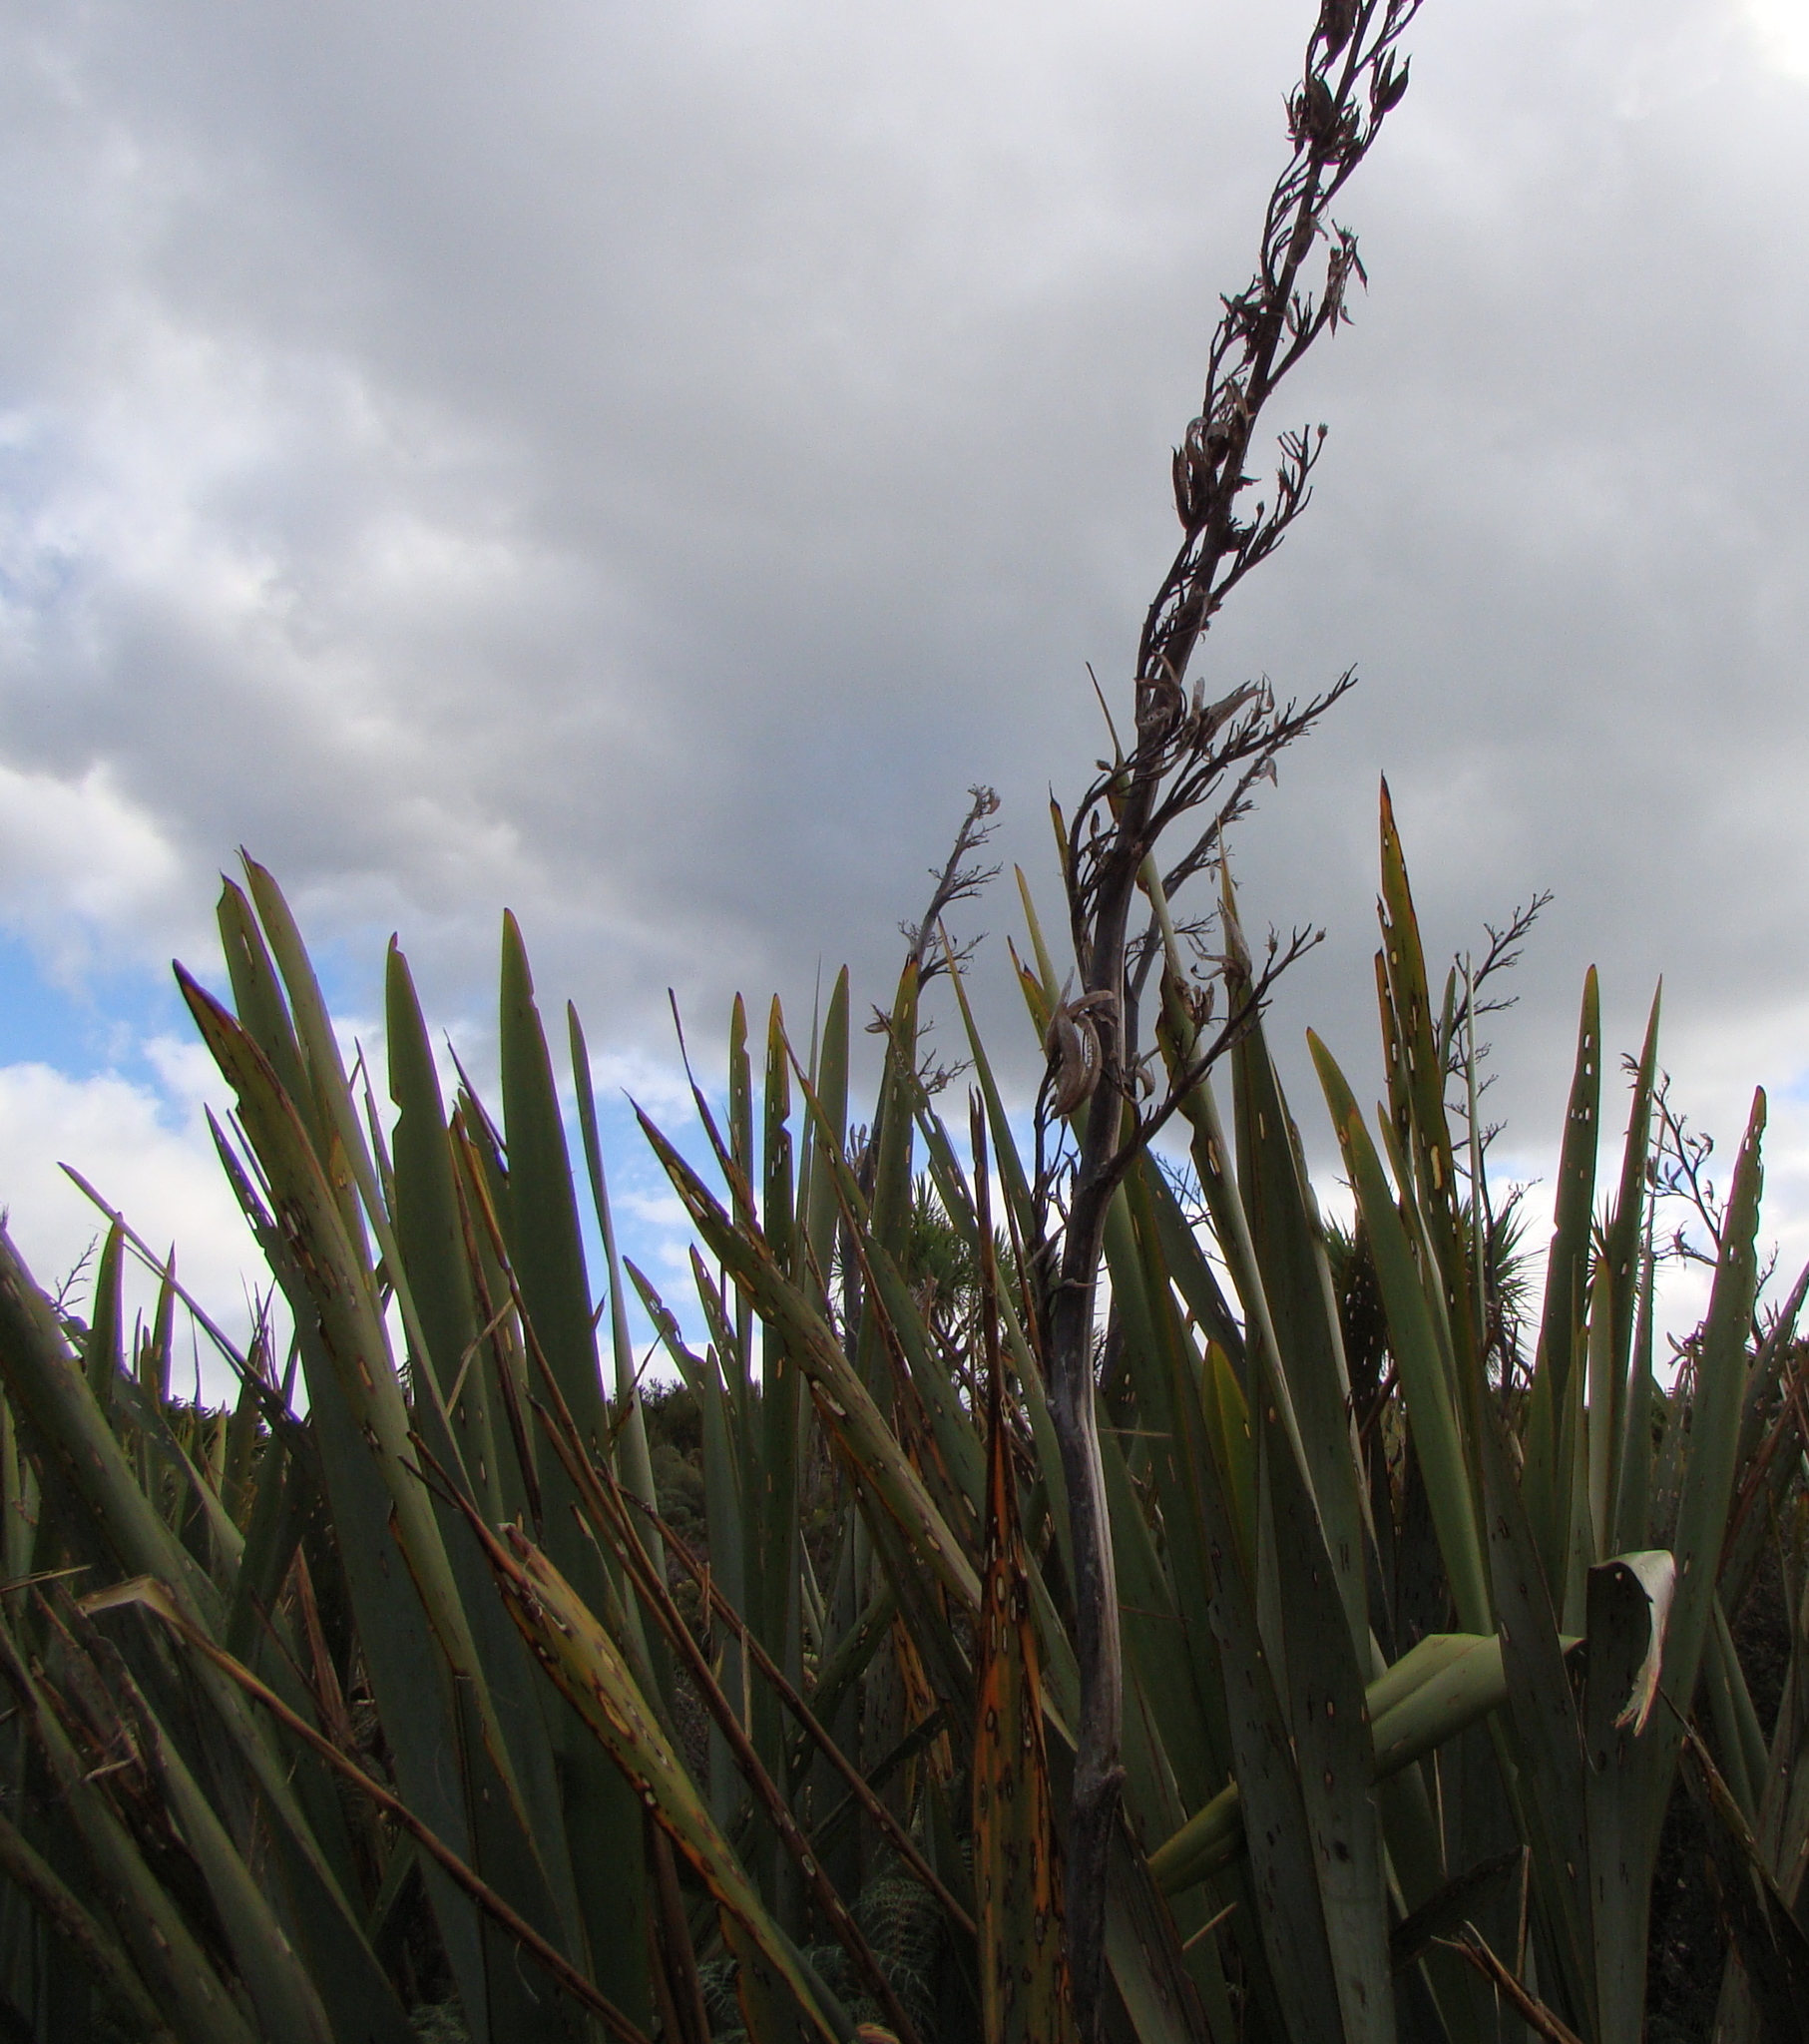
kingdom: Plantae
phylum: Tracheophyta
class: Liliopsida
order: Asparagales
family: Asphodelaceae
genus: Phormium
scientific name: Phormium tenax
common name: New zealand flax
